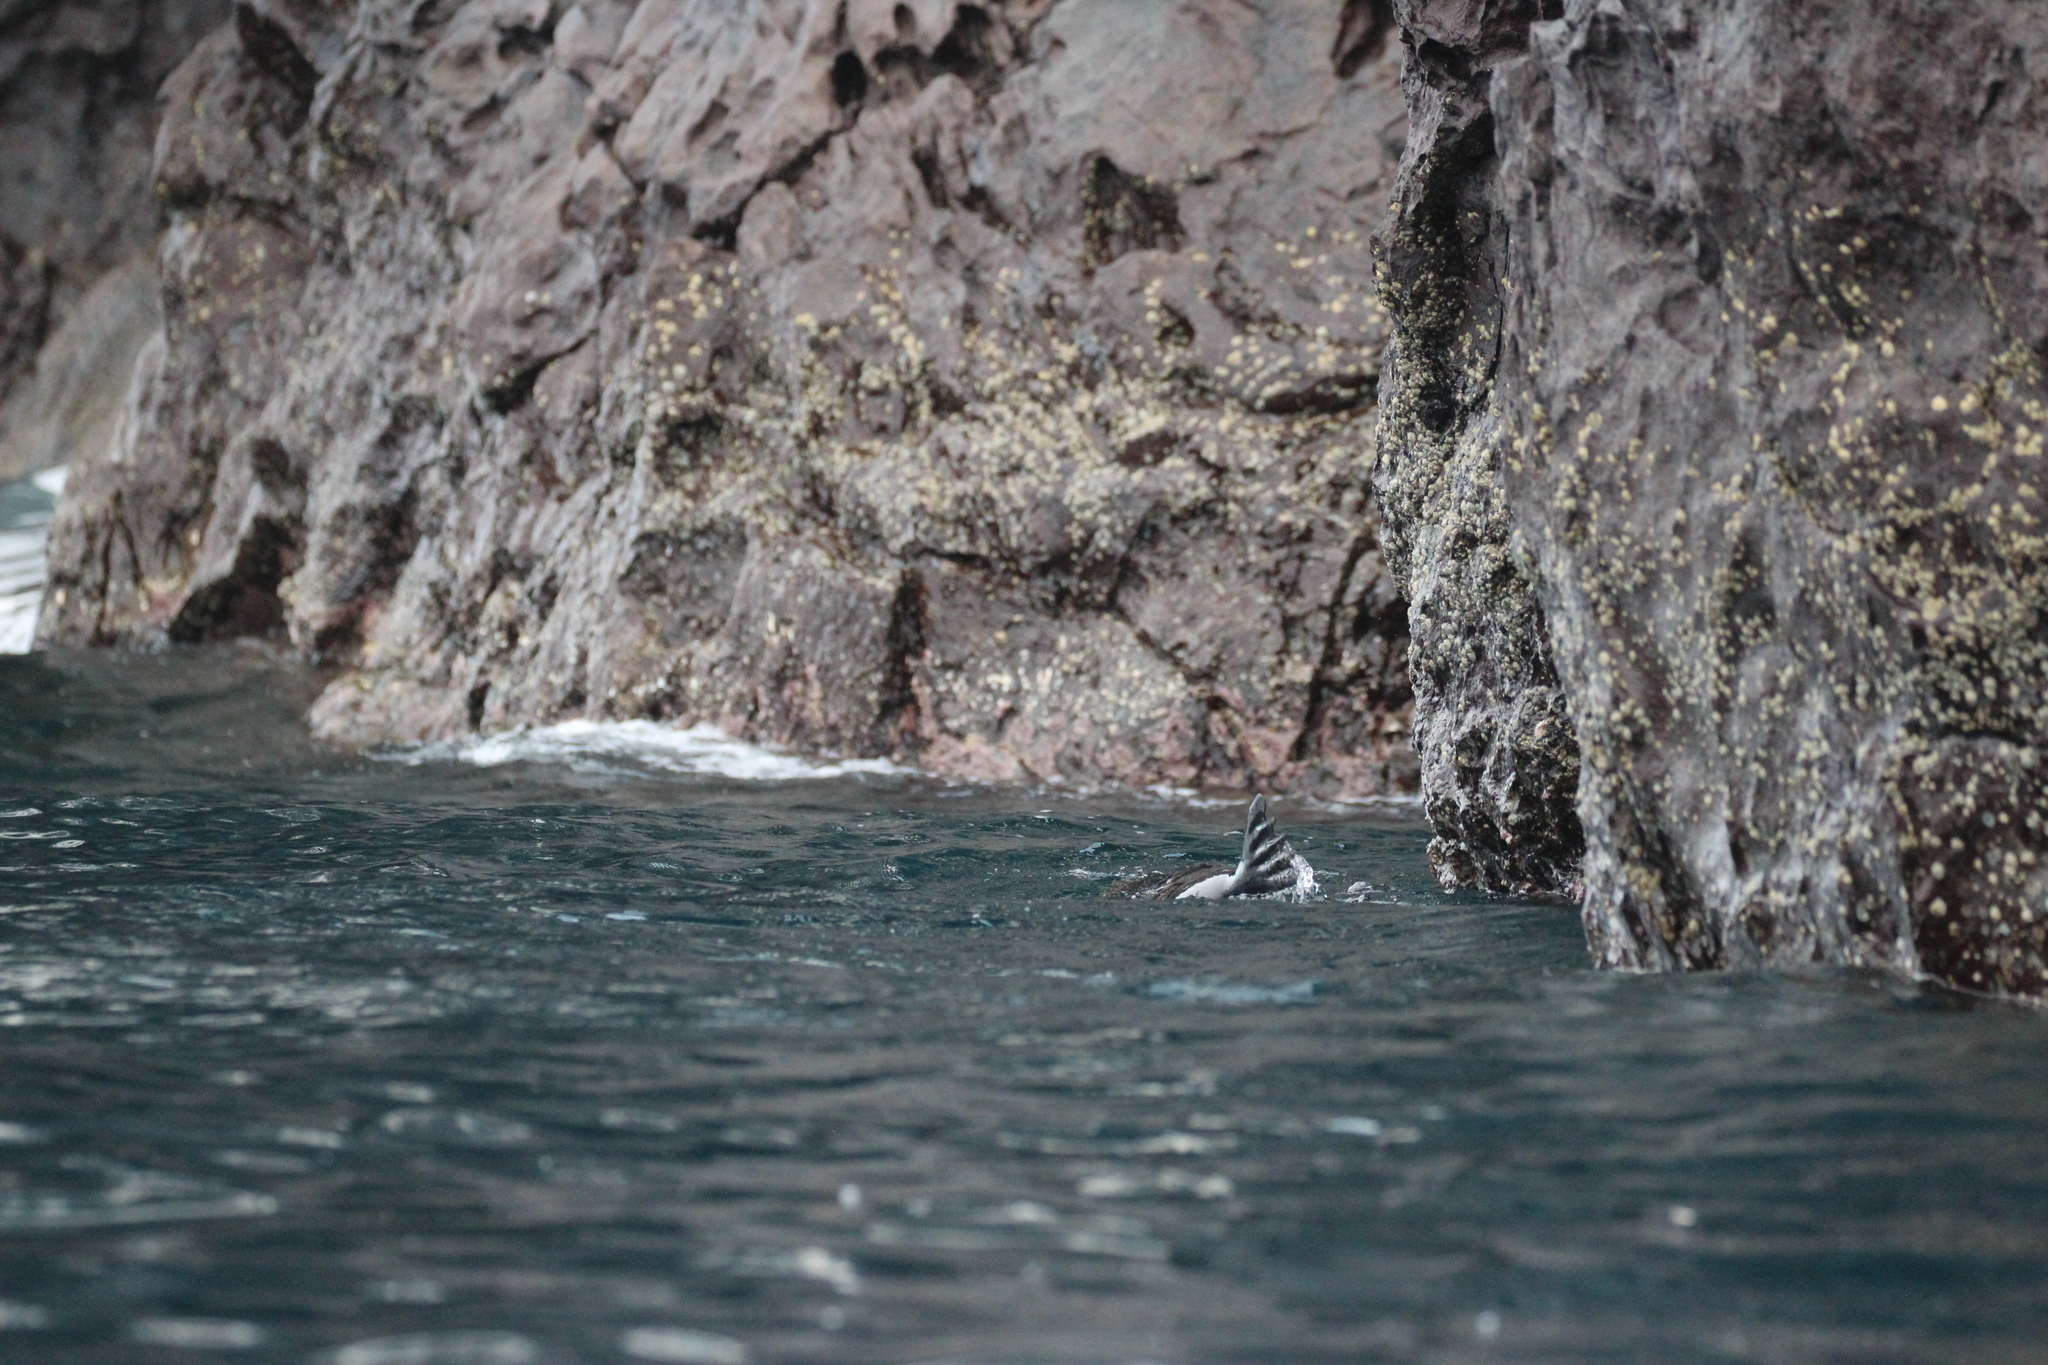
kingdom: Animalia
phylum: Chordata
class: Mammalia
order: Carnivora
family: Otariidae
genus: Zalophus
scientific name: Zalophus wollebaeki
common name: Galapagos sea lion
